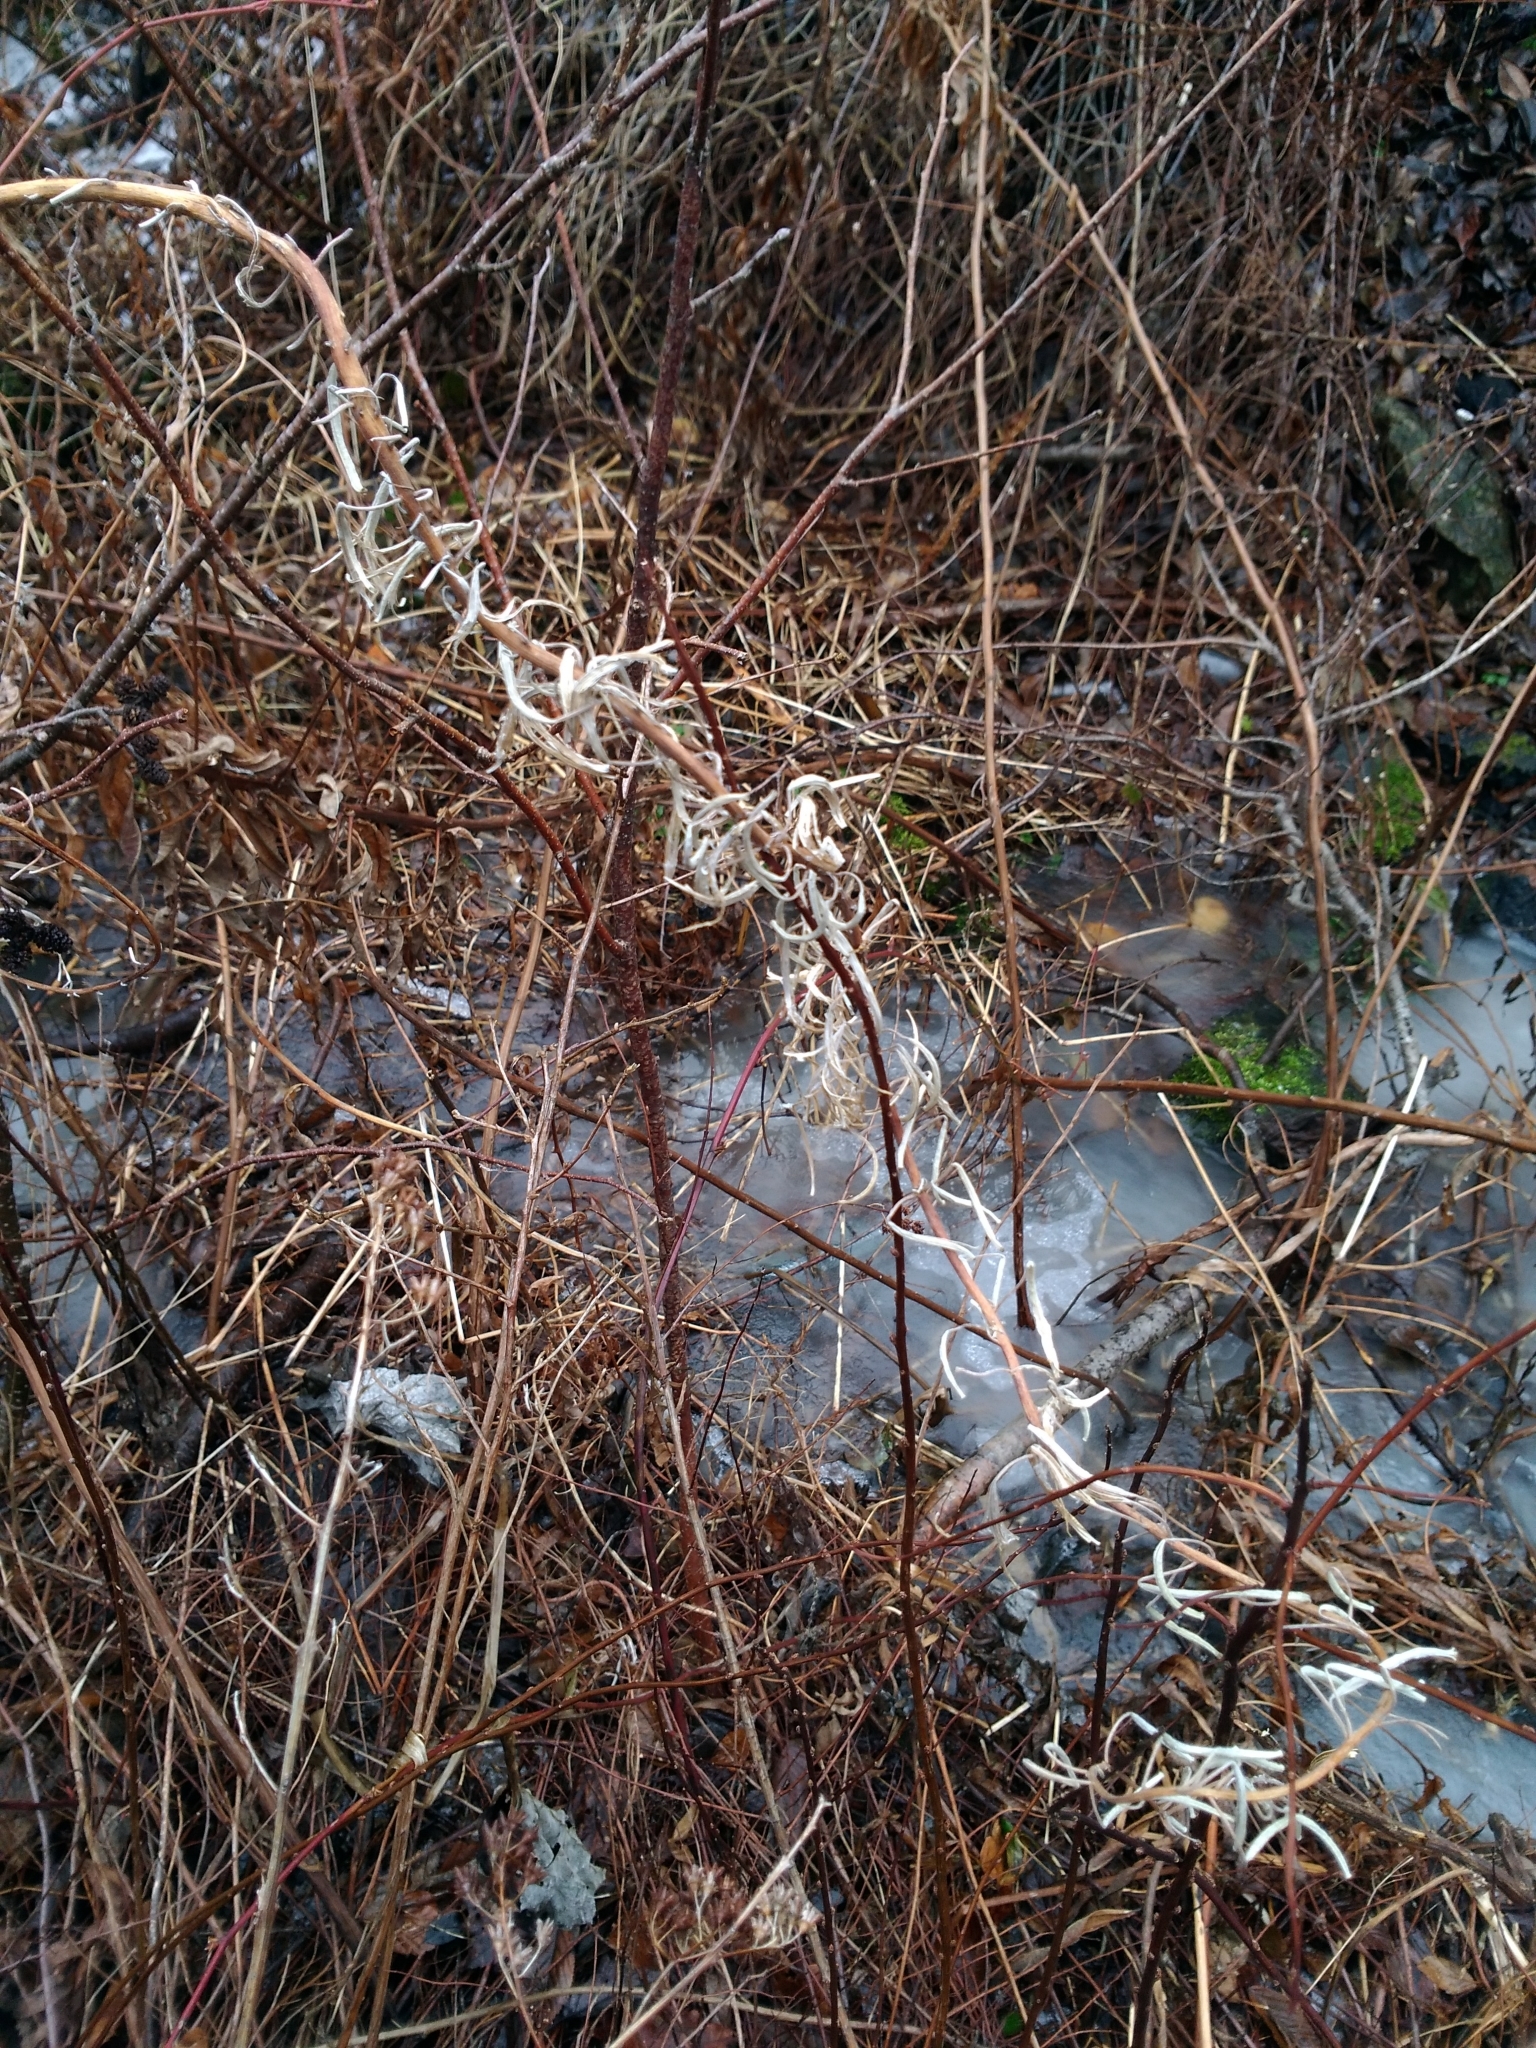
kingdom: Plantae
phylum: Tracheophyta
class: Magnoliopsida
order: Myrtales
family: Onagraceae
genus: Chamaenerion
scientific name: Chamaenerion angustifolium
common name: Fireweed
